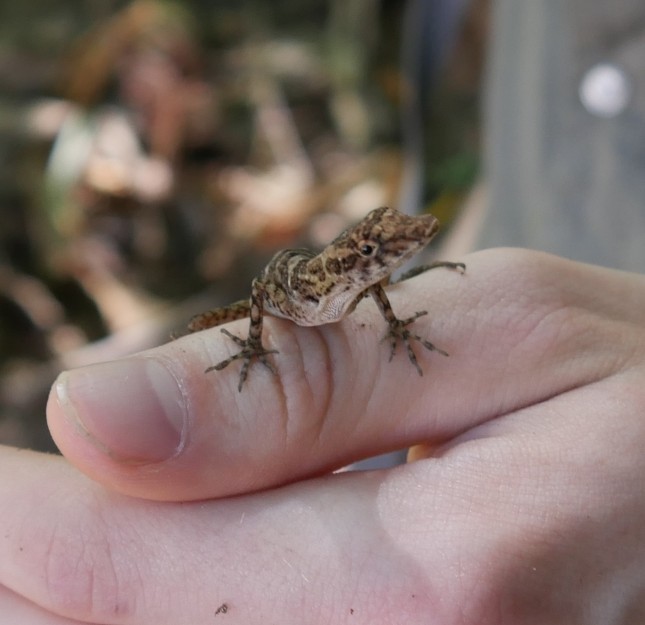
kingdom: Animalia
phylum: Chordata
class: Squamata
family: Dactyloidae
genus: Anolis
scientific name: Anolis limifrons
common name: Border anole
